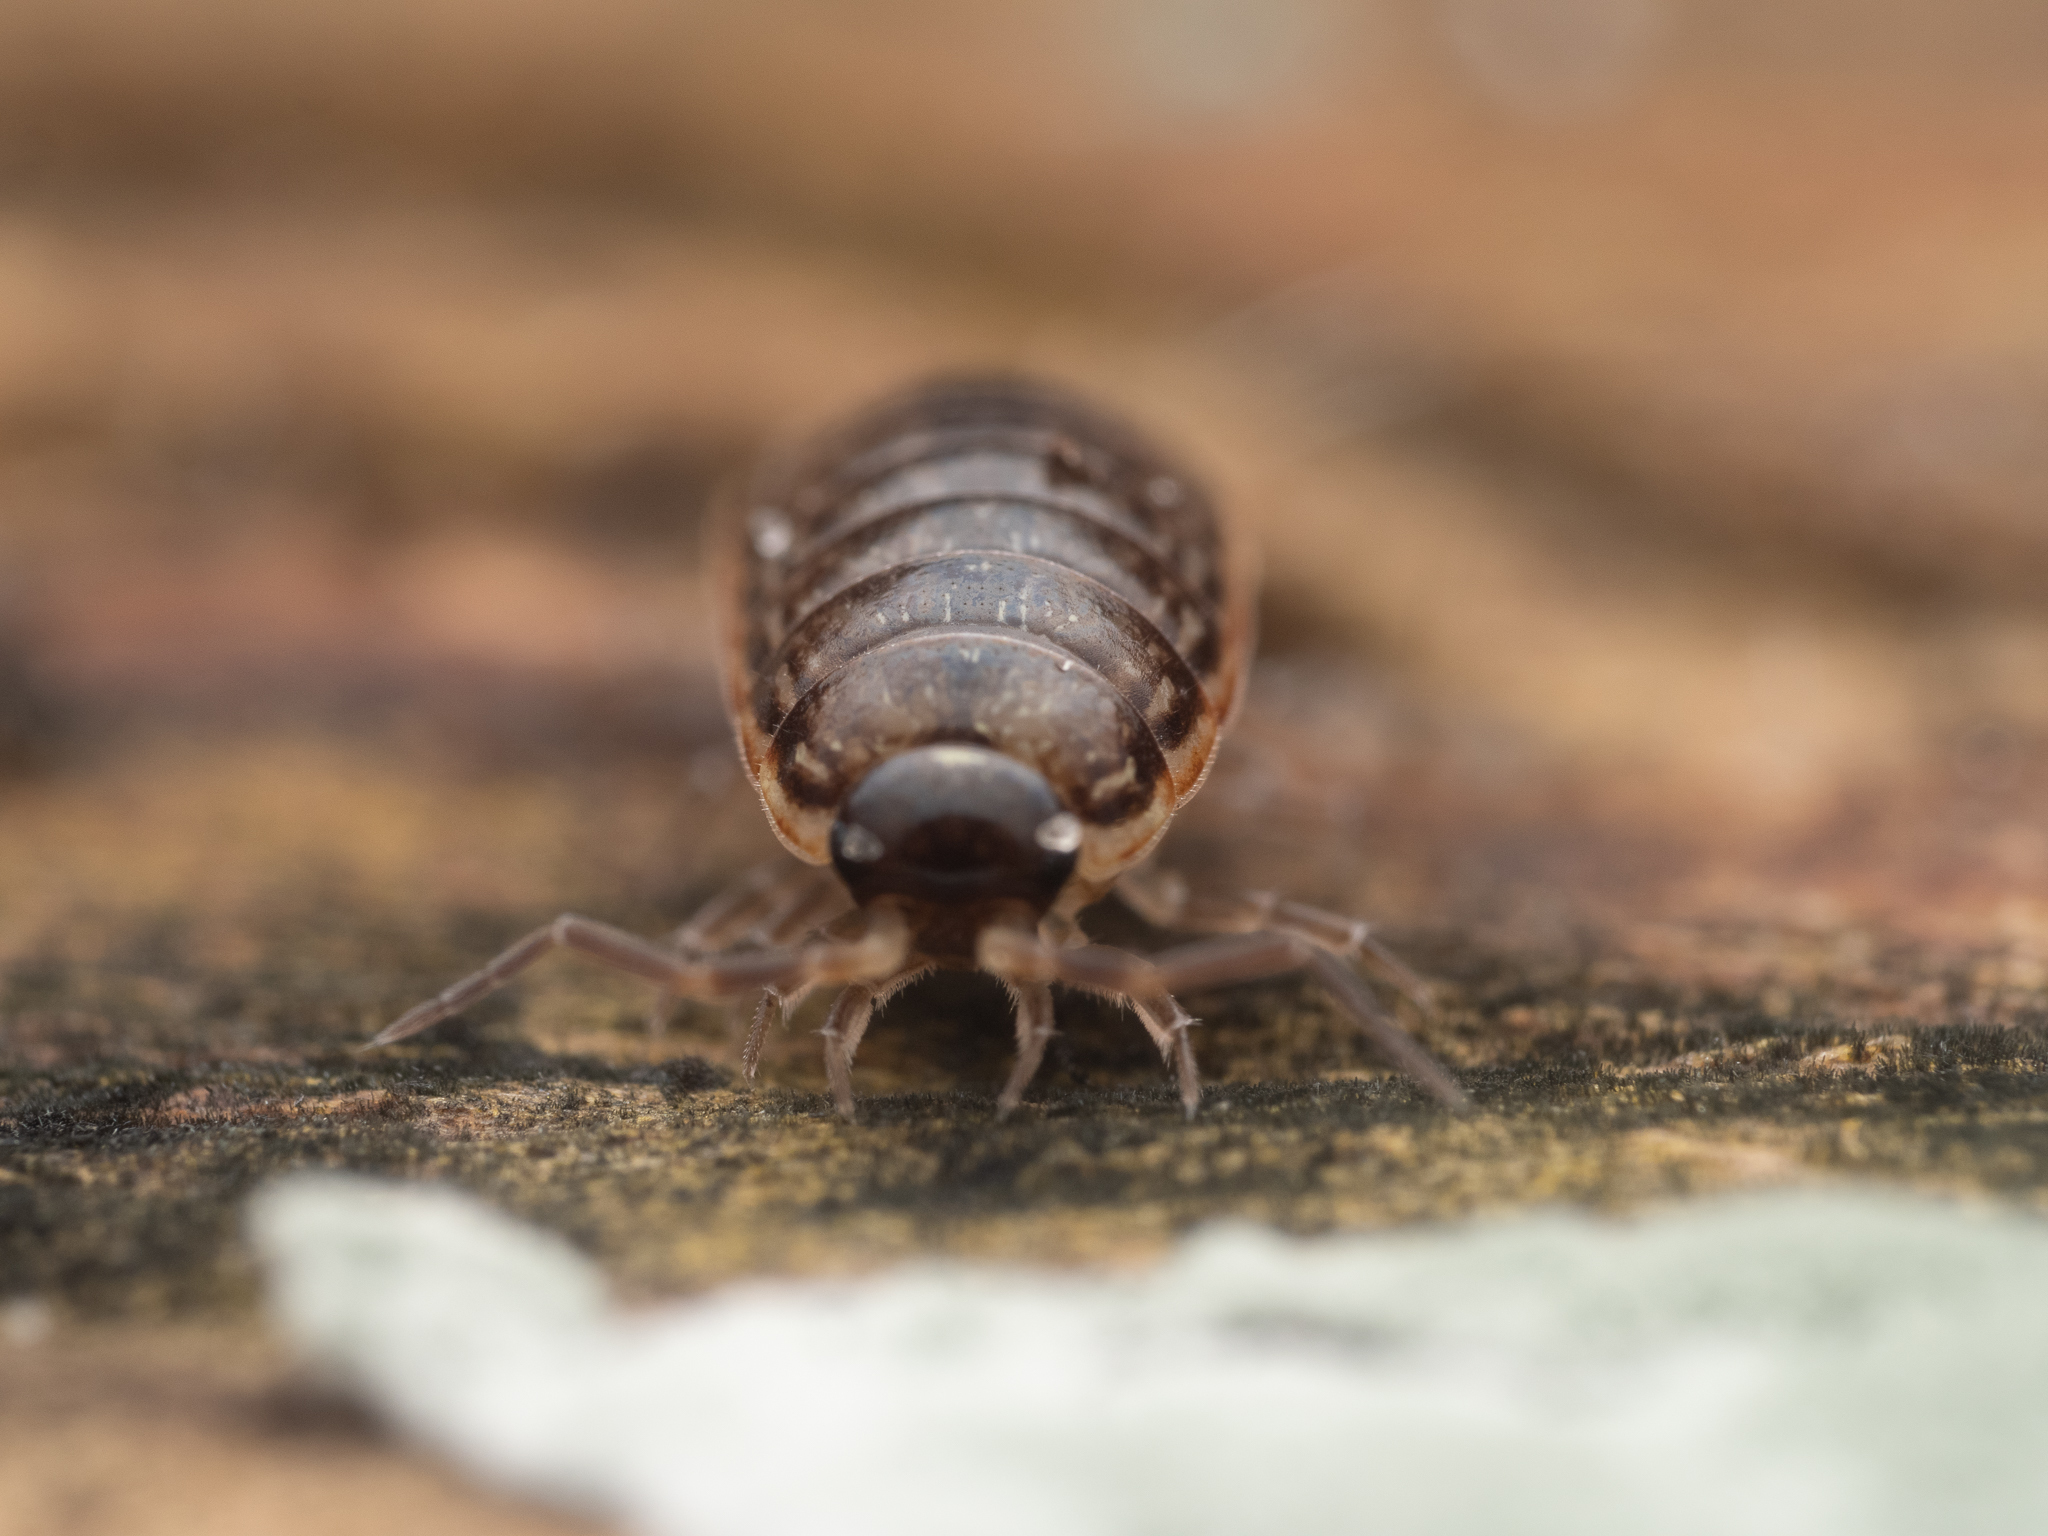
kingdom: Animalia
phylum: Arthropoda
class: Malacostraca
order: Isopoda
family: Philosciidae
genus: Philoscia
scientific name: Philoscia muscorum
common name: Common striped woodlouse
